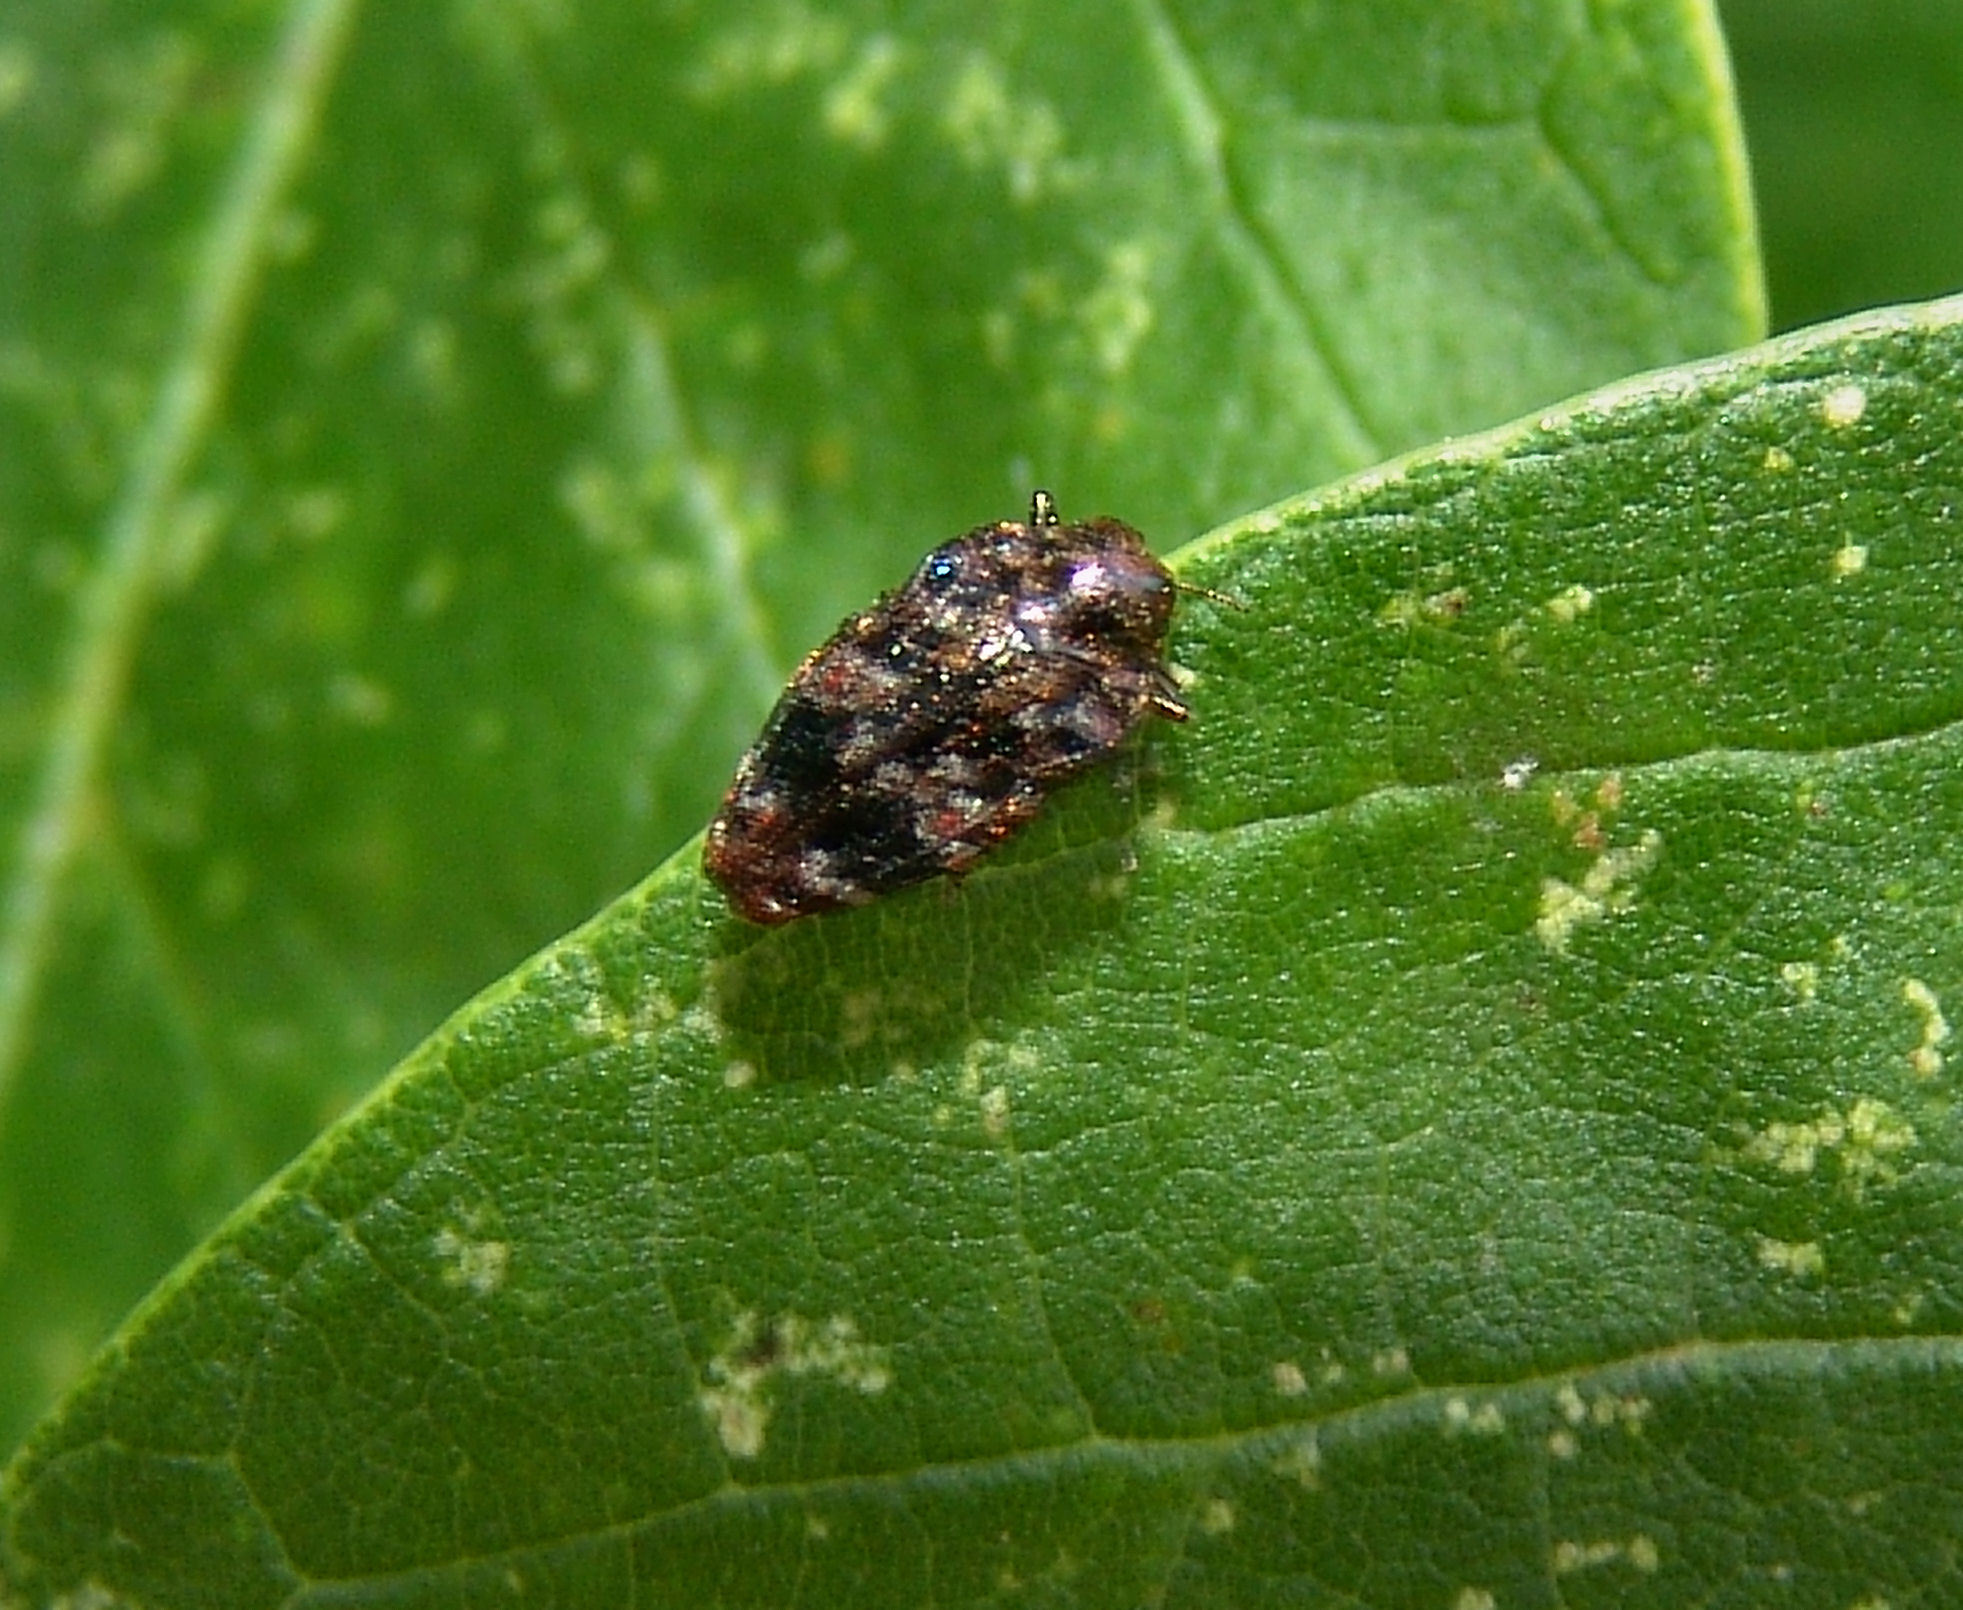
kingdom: Animalia
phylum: Arthropoda
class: Insecta
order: Coleoptera
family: Buprestidae
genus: Brachys
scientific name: Brachys ovatus
